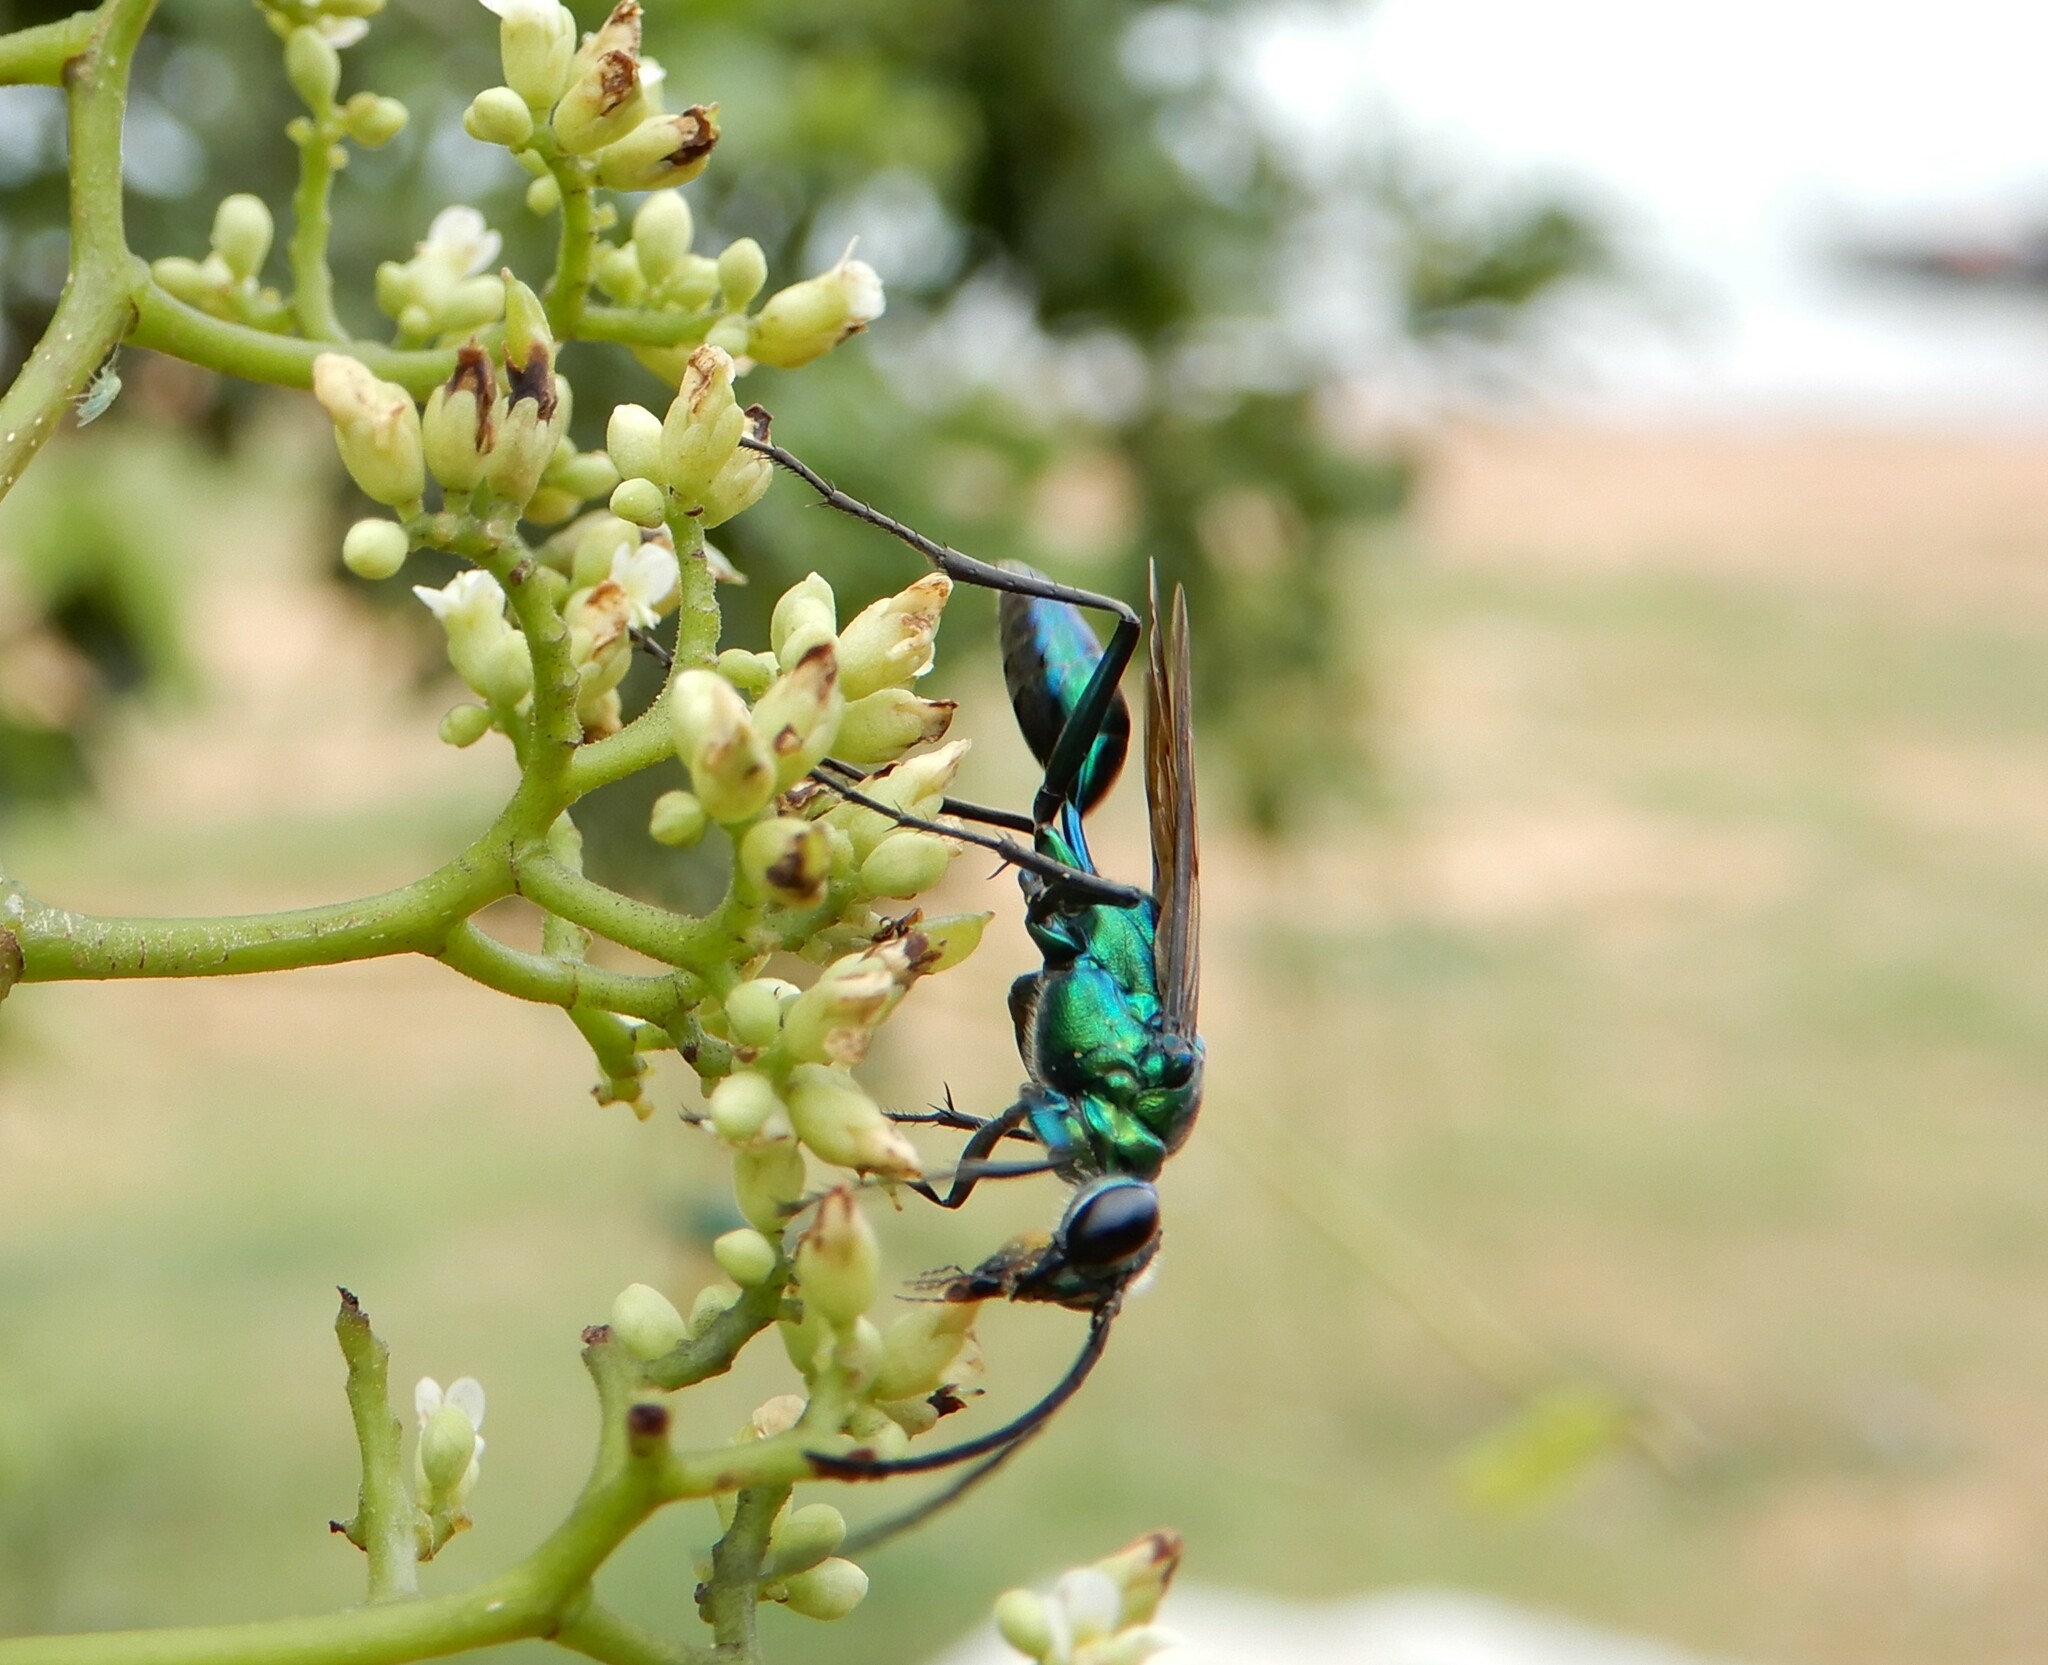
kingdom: Animalia
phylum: Arthropoda
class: Insecta
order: Hymenoptera
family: Sphecidae
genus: Chlorion
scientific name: Chlorion lobatum
